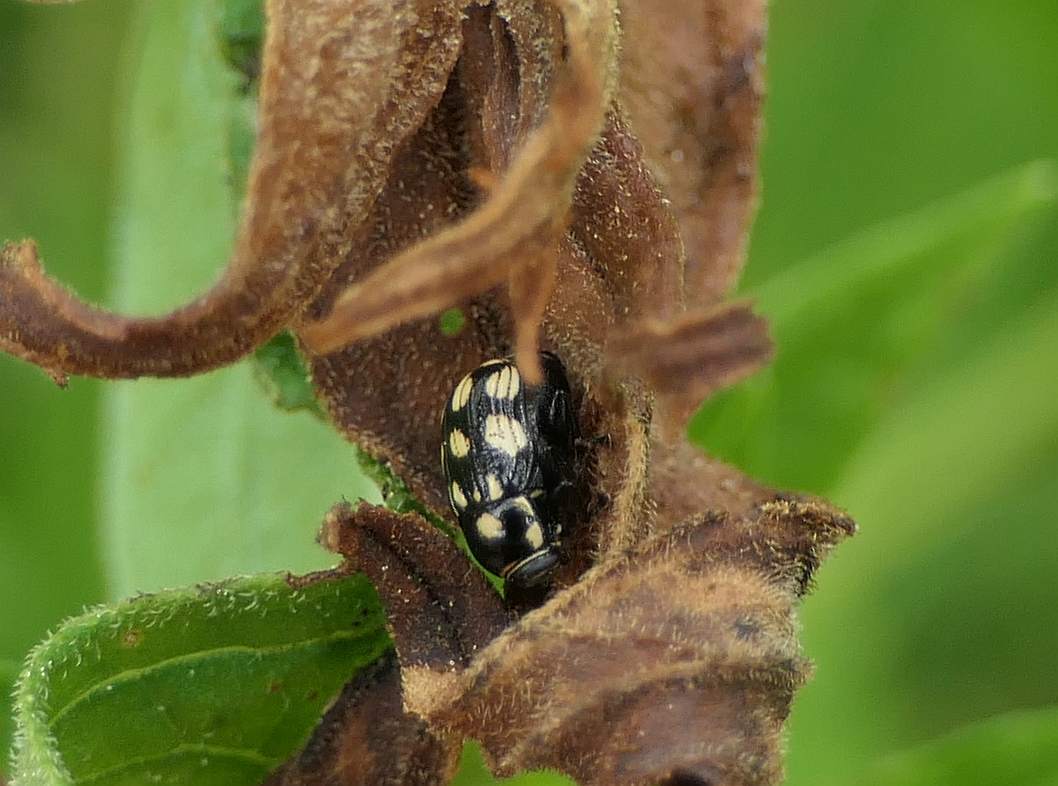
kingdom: Animalia
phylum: Arthropoda
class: Insecta
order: Coleoptera
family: Chrysomelidae
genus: Bassareus
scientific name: Bassareus clathratus
